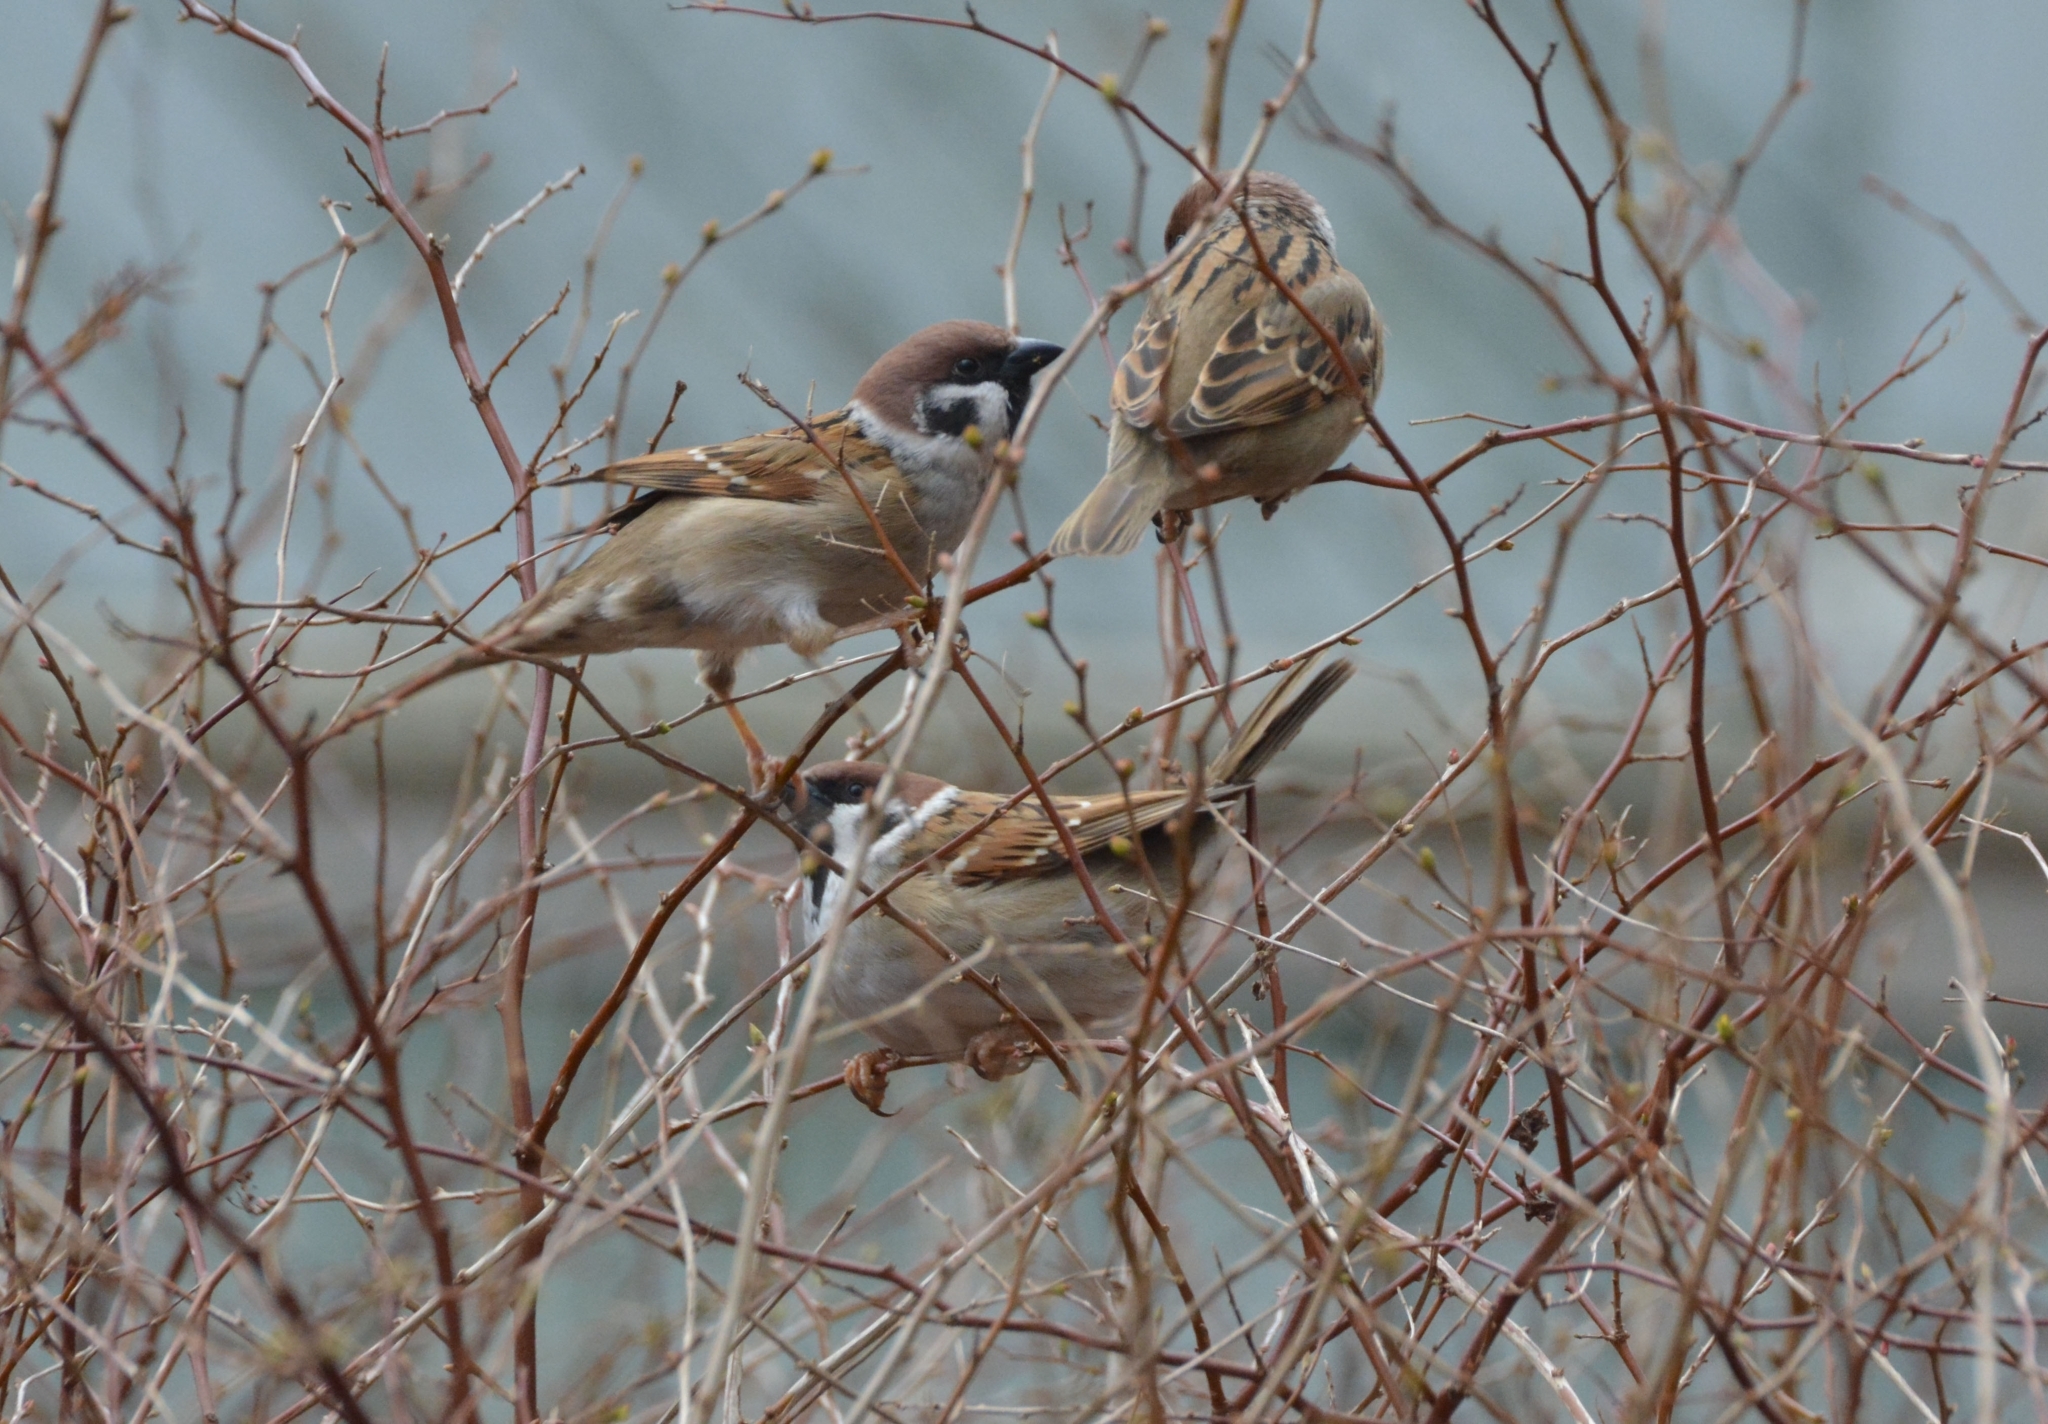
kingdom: Animalia
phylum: Chordata
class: Aves
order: Passeriformes
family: Passeridae
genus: Passer
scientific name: Passer montanus
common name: Eurasian tree sparrow
